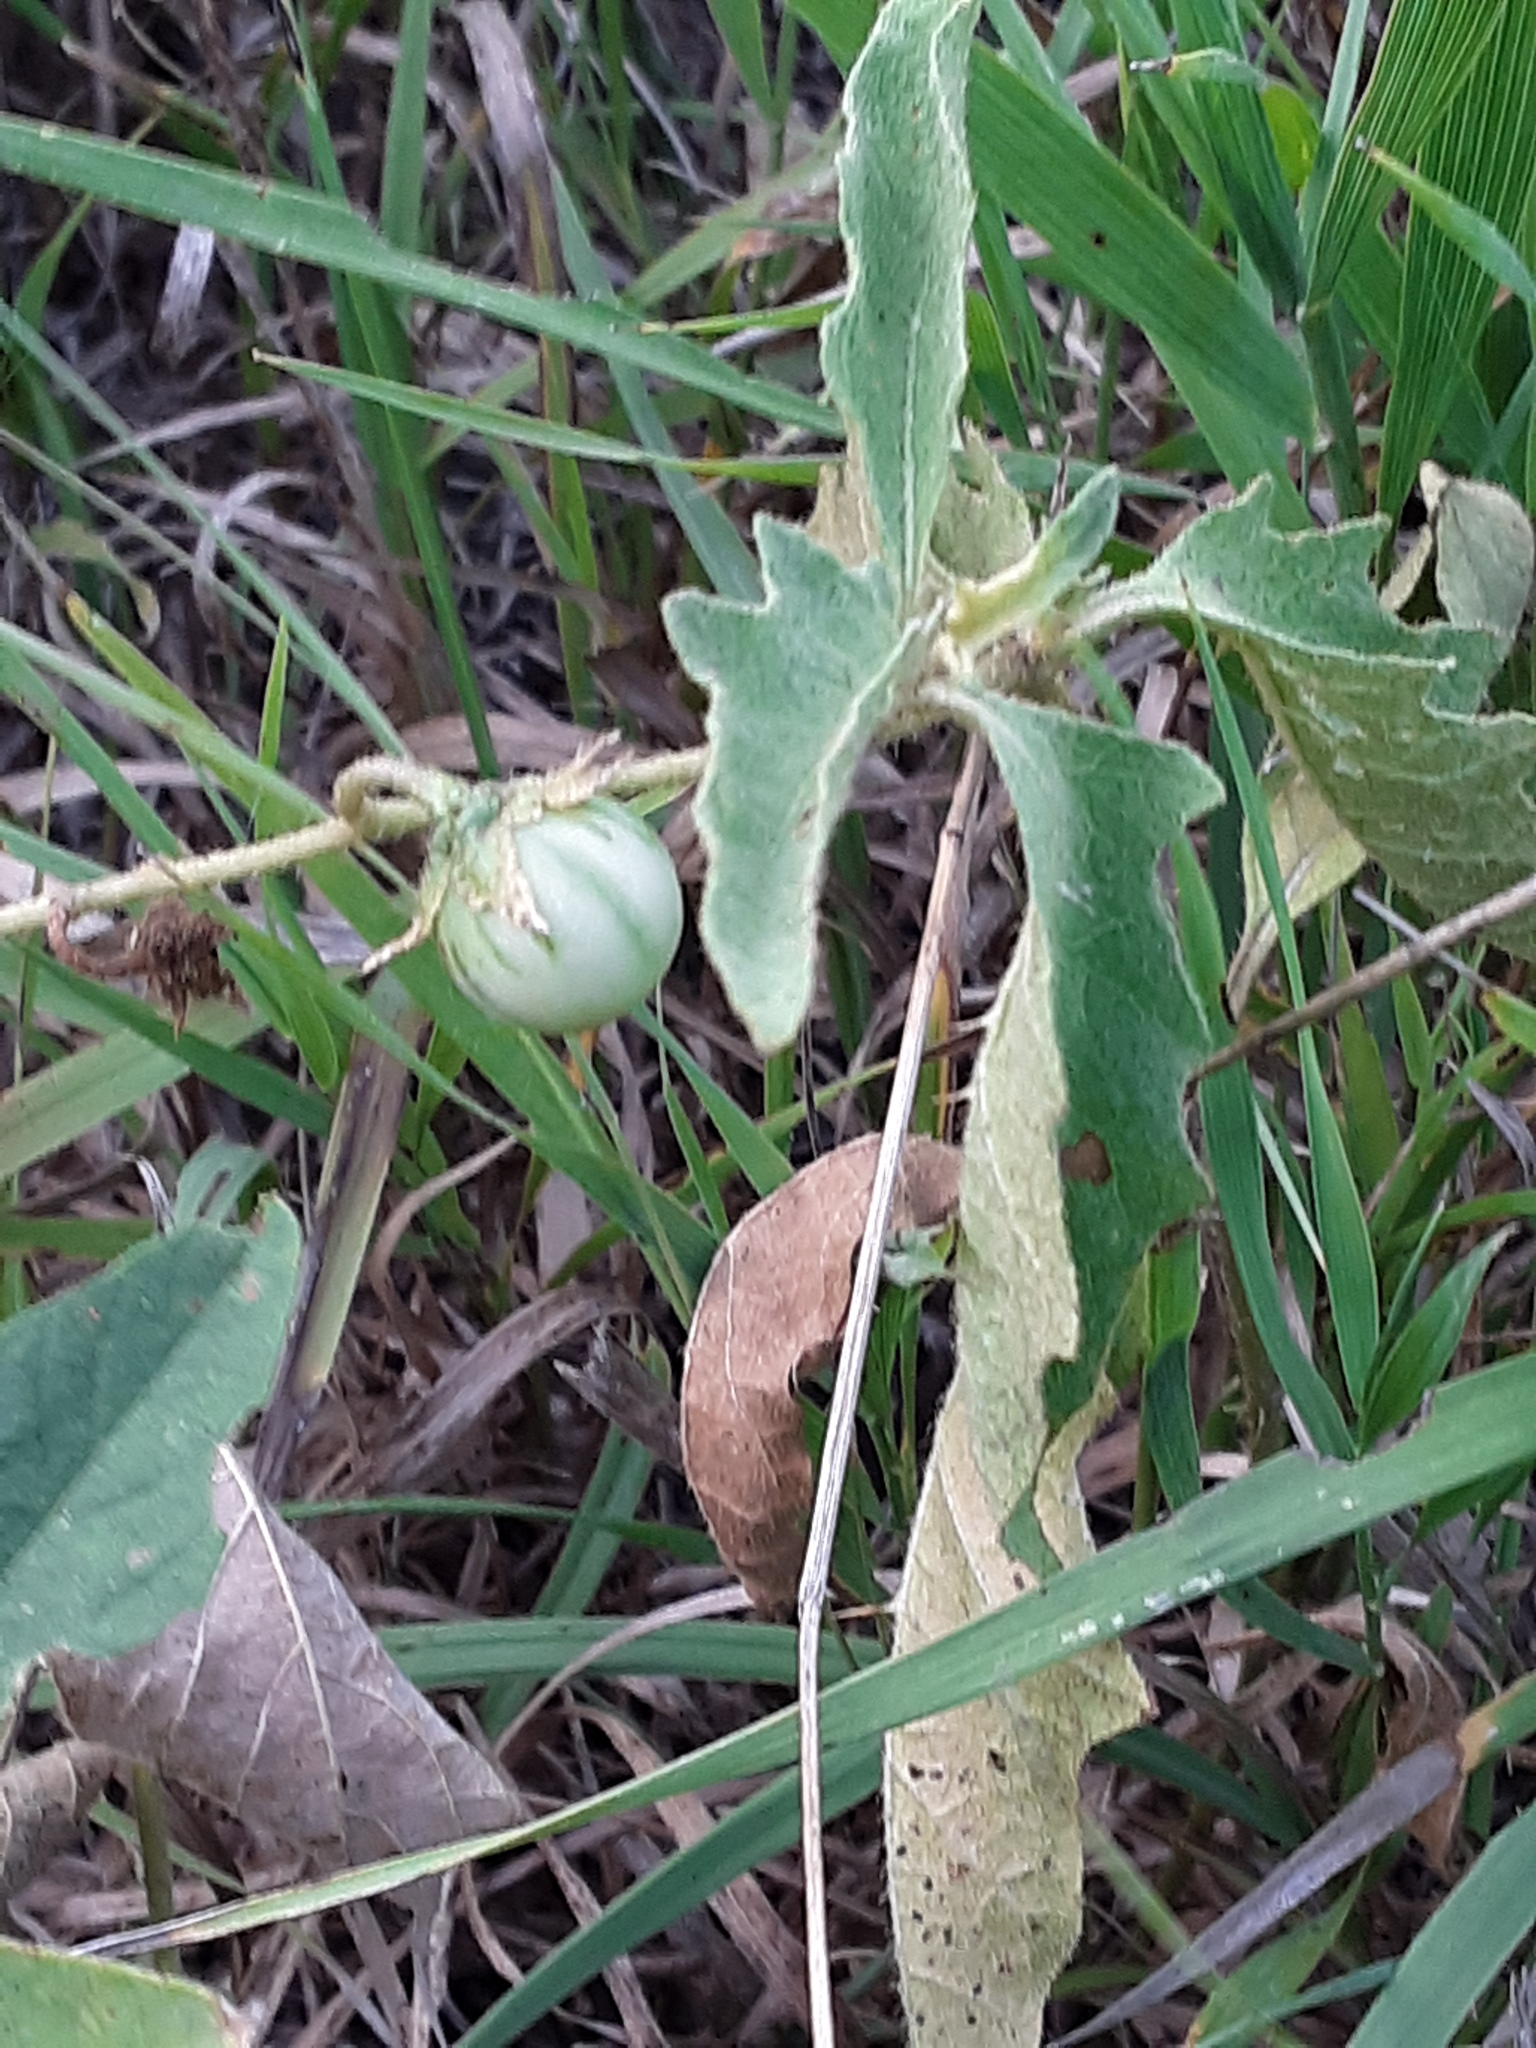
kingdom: Plantae
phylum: Tracheophyta
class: Magnoliopsida
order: Solanales
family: Solanaceae
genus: Solanum
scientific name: Solanum carolinense
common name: Horse-nettle
